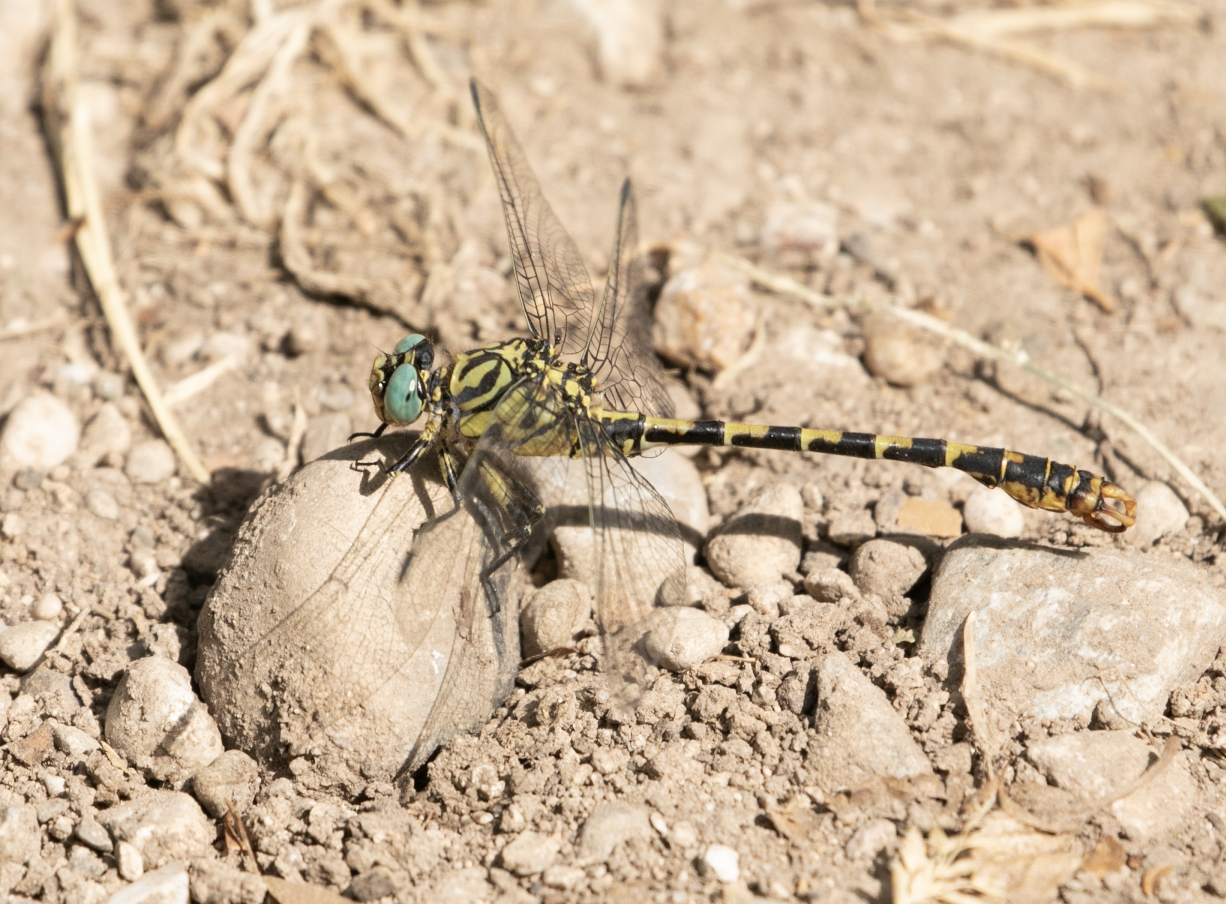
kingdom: Animalia
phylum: Arthropoda
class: Insecta
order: Odonata
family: Gomphidae
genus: Onychogomphus
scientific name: Onychogomphus forcipatus
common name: Small pincertail
